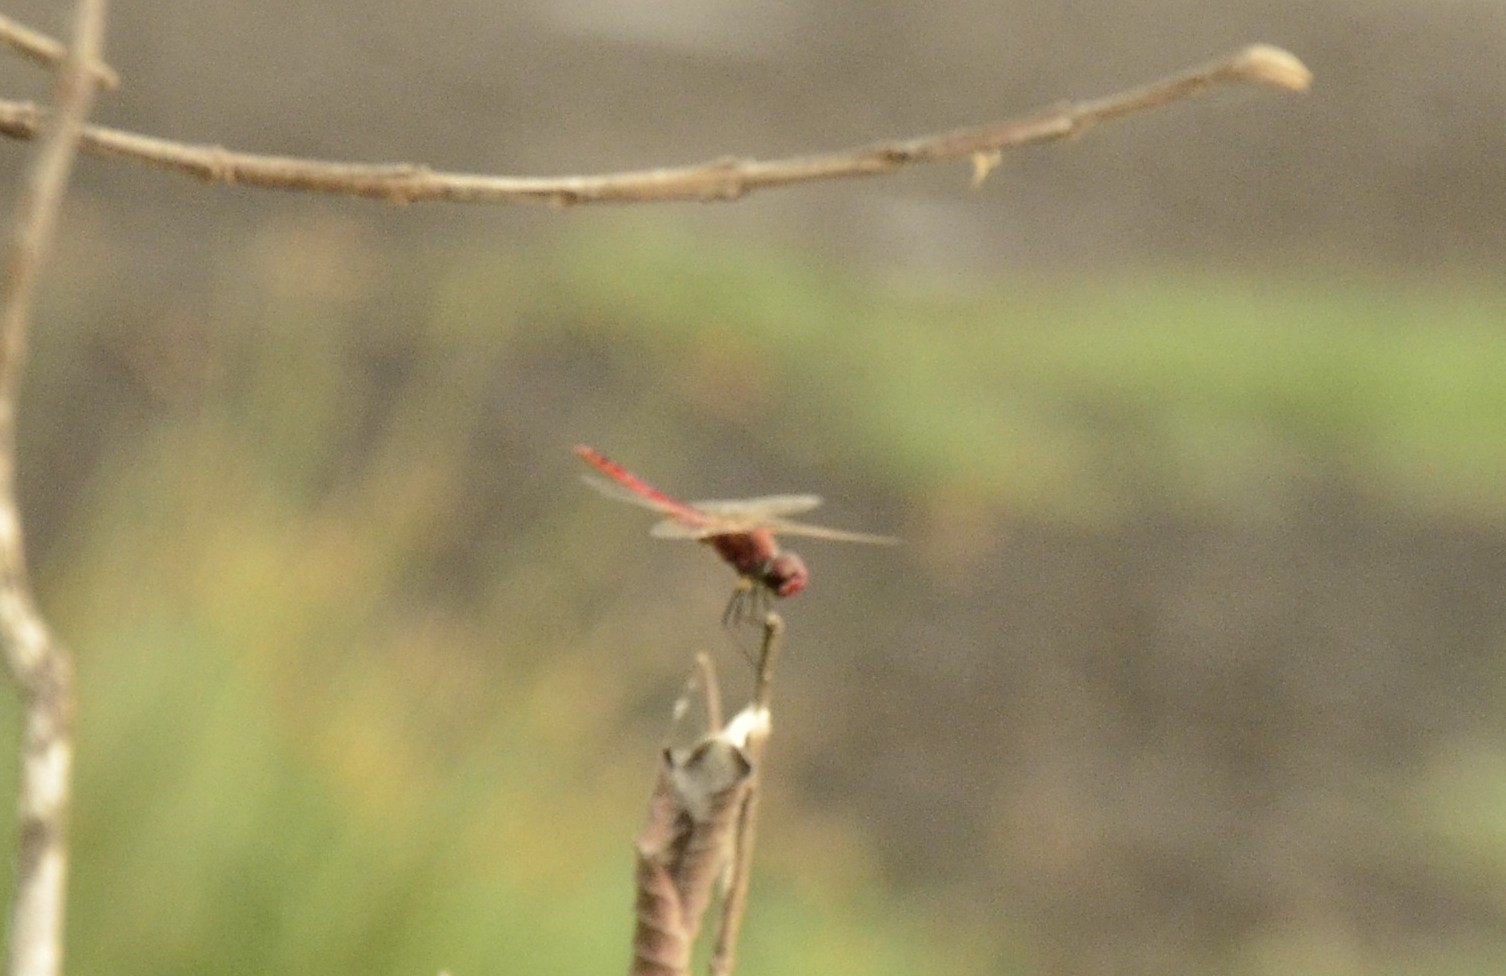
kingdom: Animalia
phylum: Arthropoda
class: Insecta
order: Odonata
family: Libellulidae
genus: Macrodiplax
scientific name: Macrodiplax cora
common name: Coastal glider
